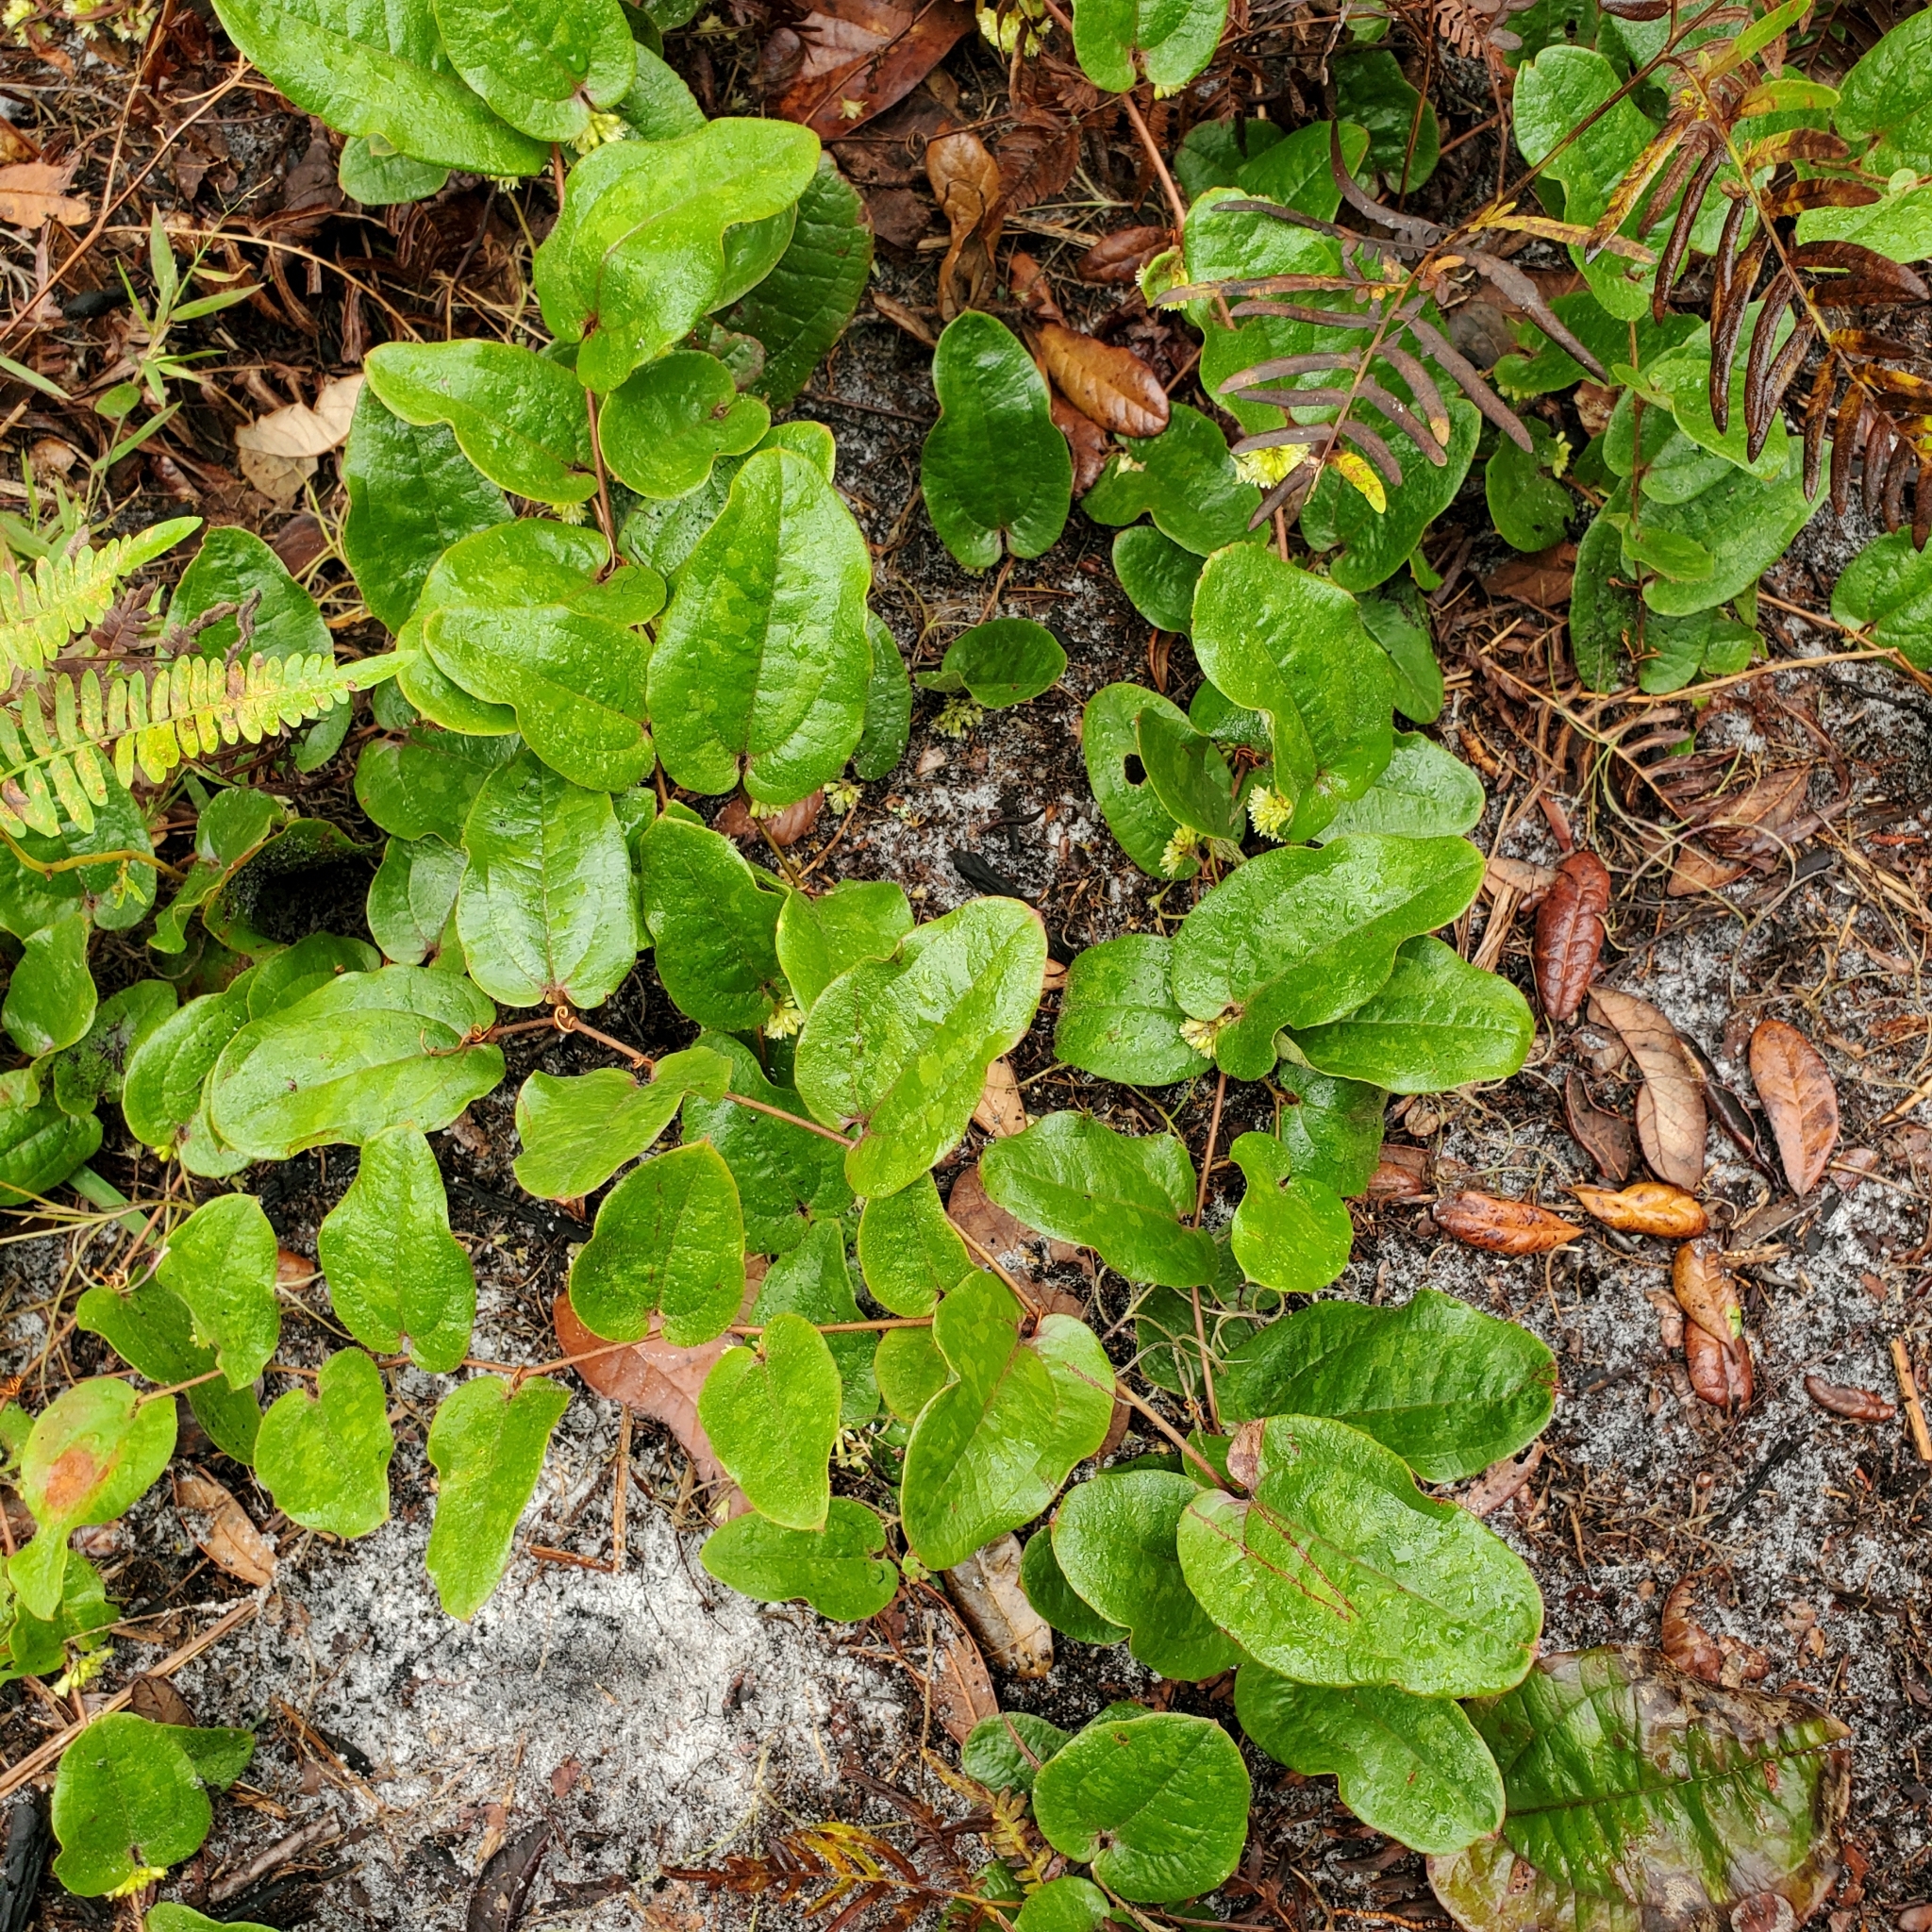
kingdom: Plantae
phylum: Tracheophyta
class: Liliopsida
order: Liliales
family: Smilacaceae
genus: Smilax
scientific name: Smilax pumila
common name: Sarsaparilla-vine
